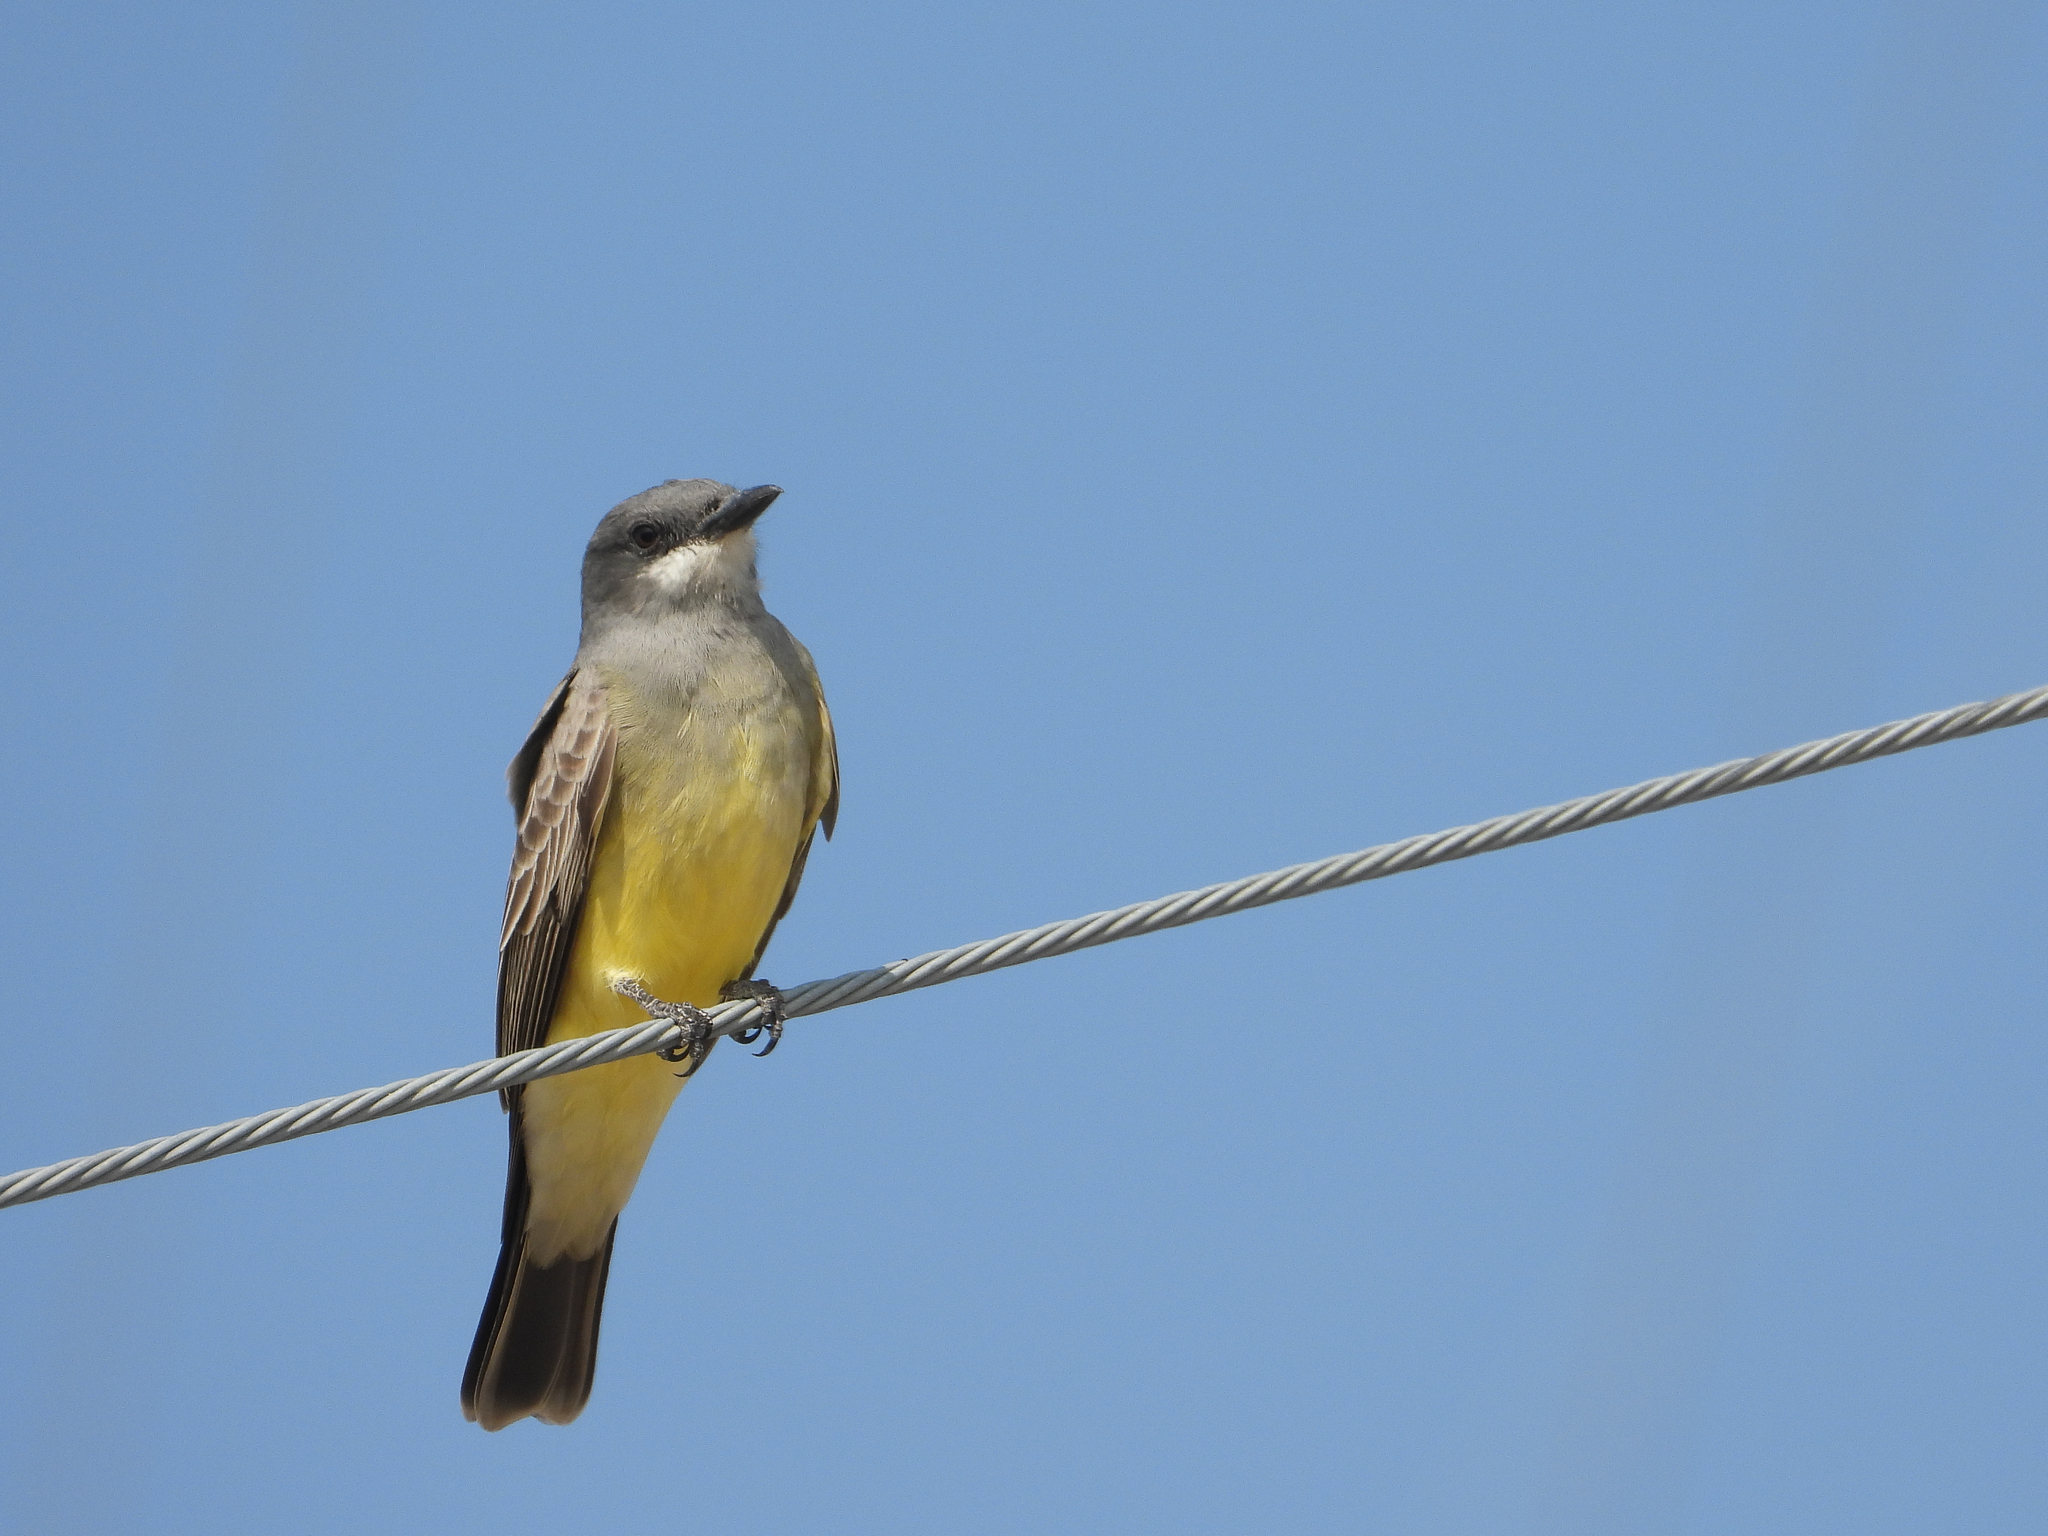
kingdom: Animalia
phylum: Chordata
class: Aves
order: Passeriformes
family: Tyrannidae
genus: Tyrannus
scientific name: Tyrannus vociferans
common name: Cassin's kingbird
